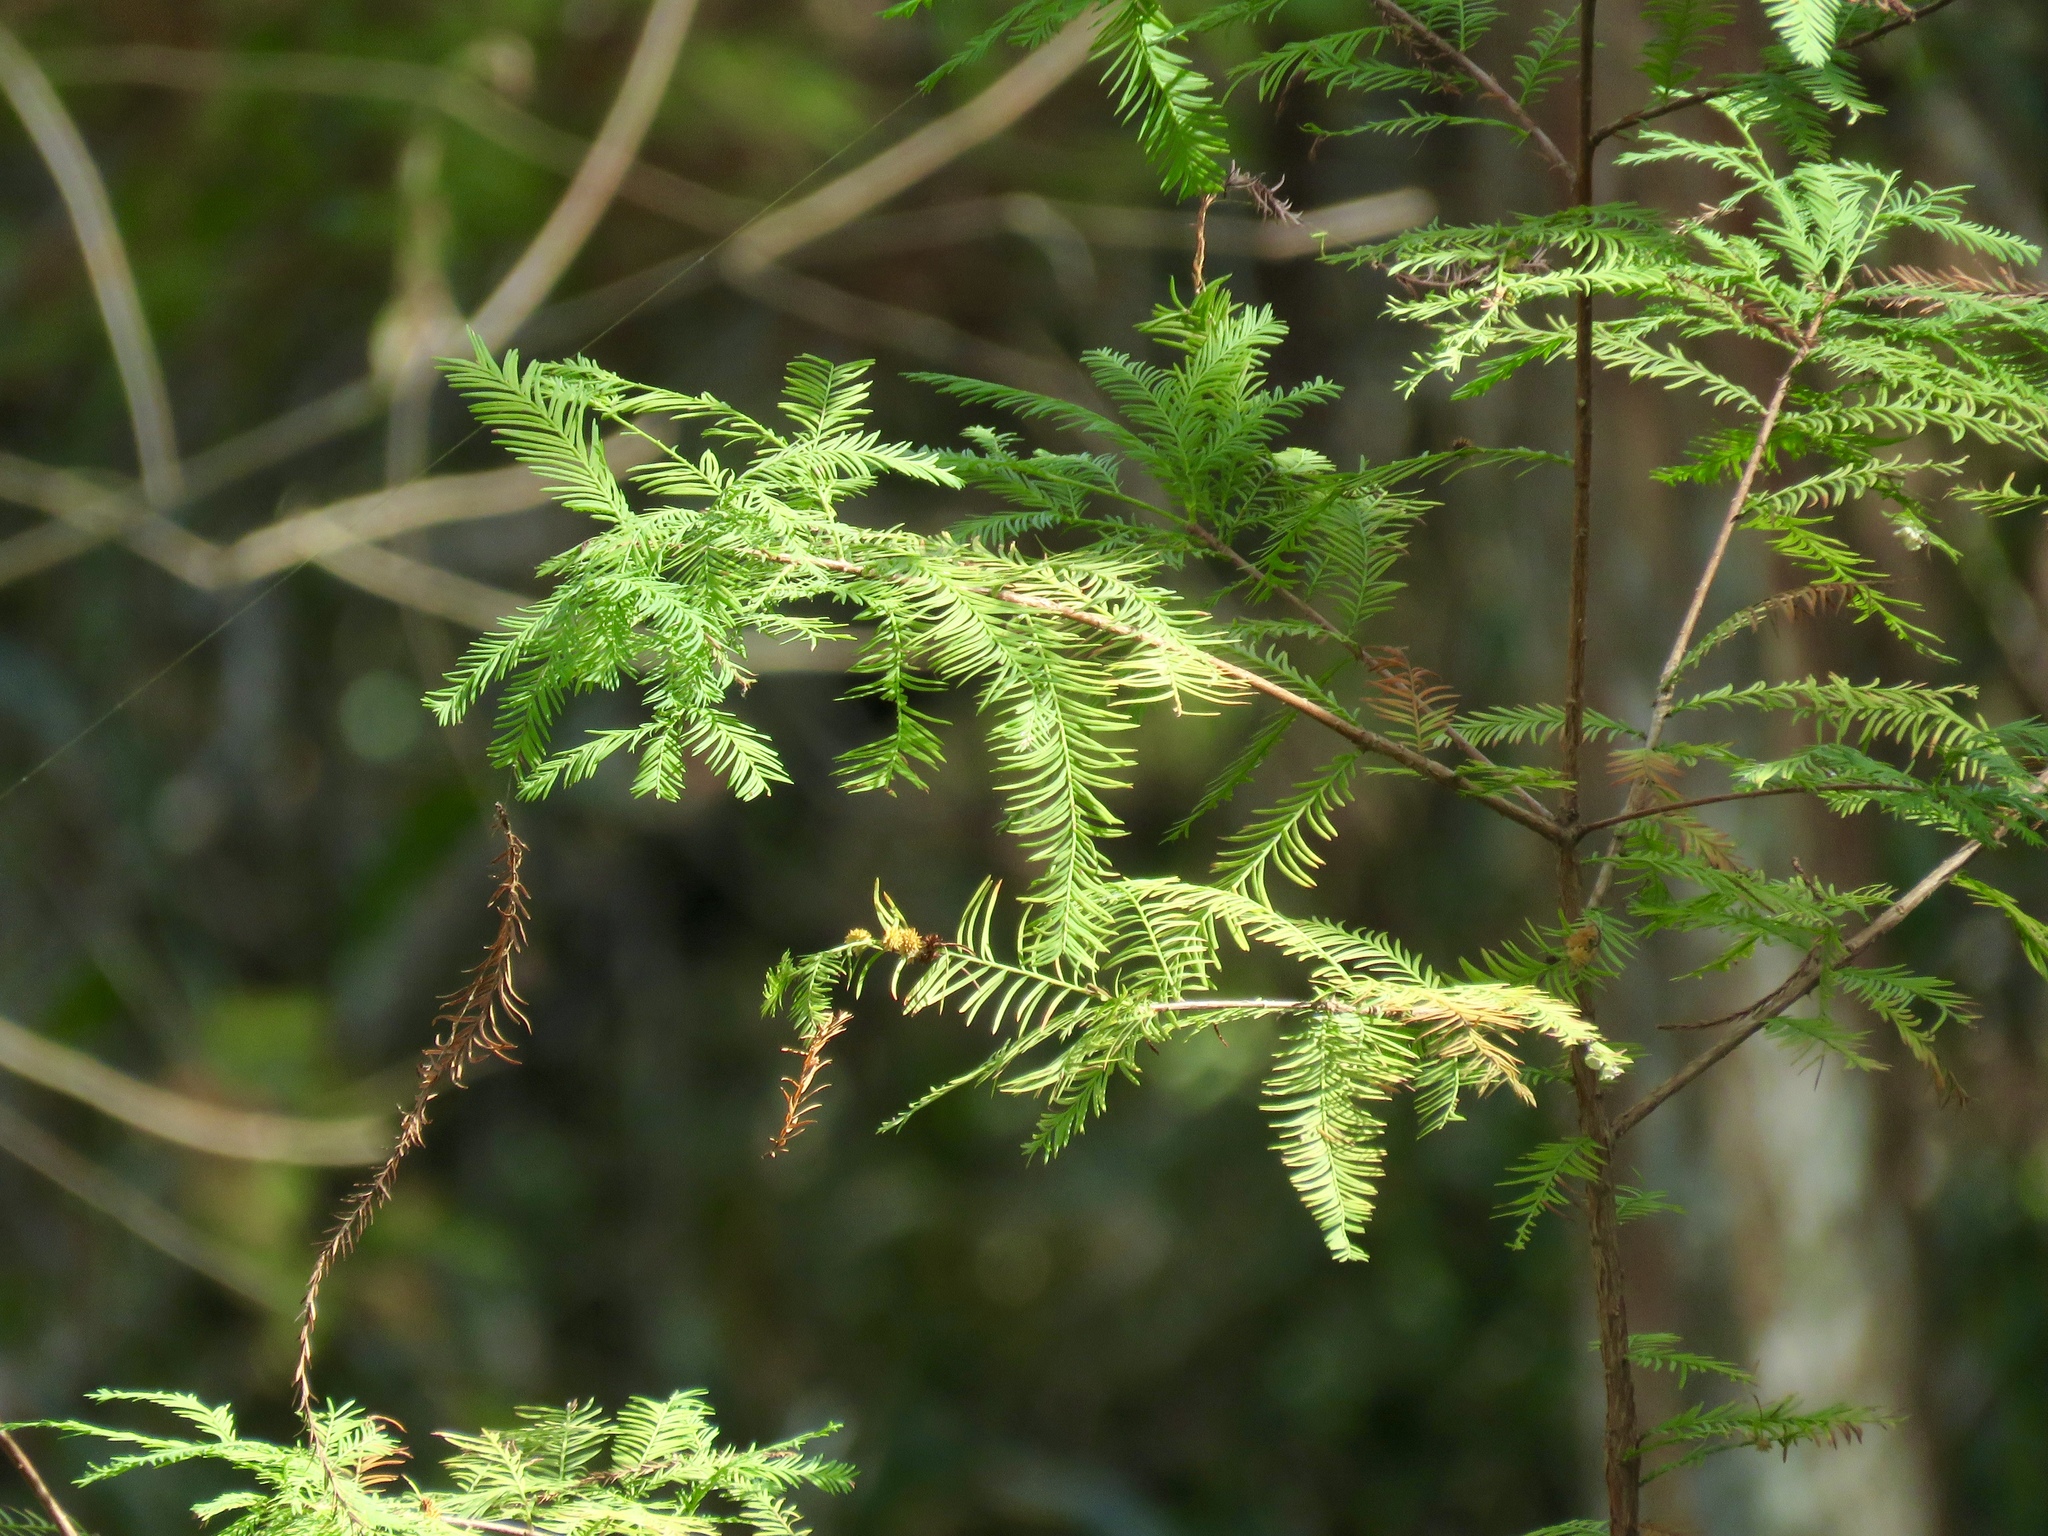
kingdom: Plantae
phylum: Tracheophyta
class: Pinopsida
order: Pinales
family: Cupressaceae
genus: Taxodium
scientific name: Taxodium distichum
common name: Bald cypress
